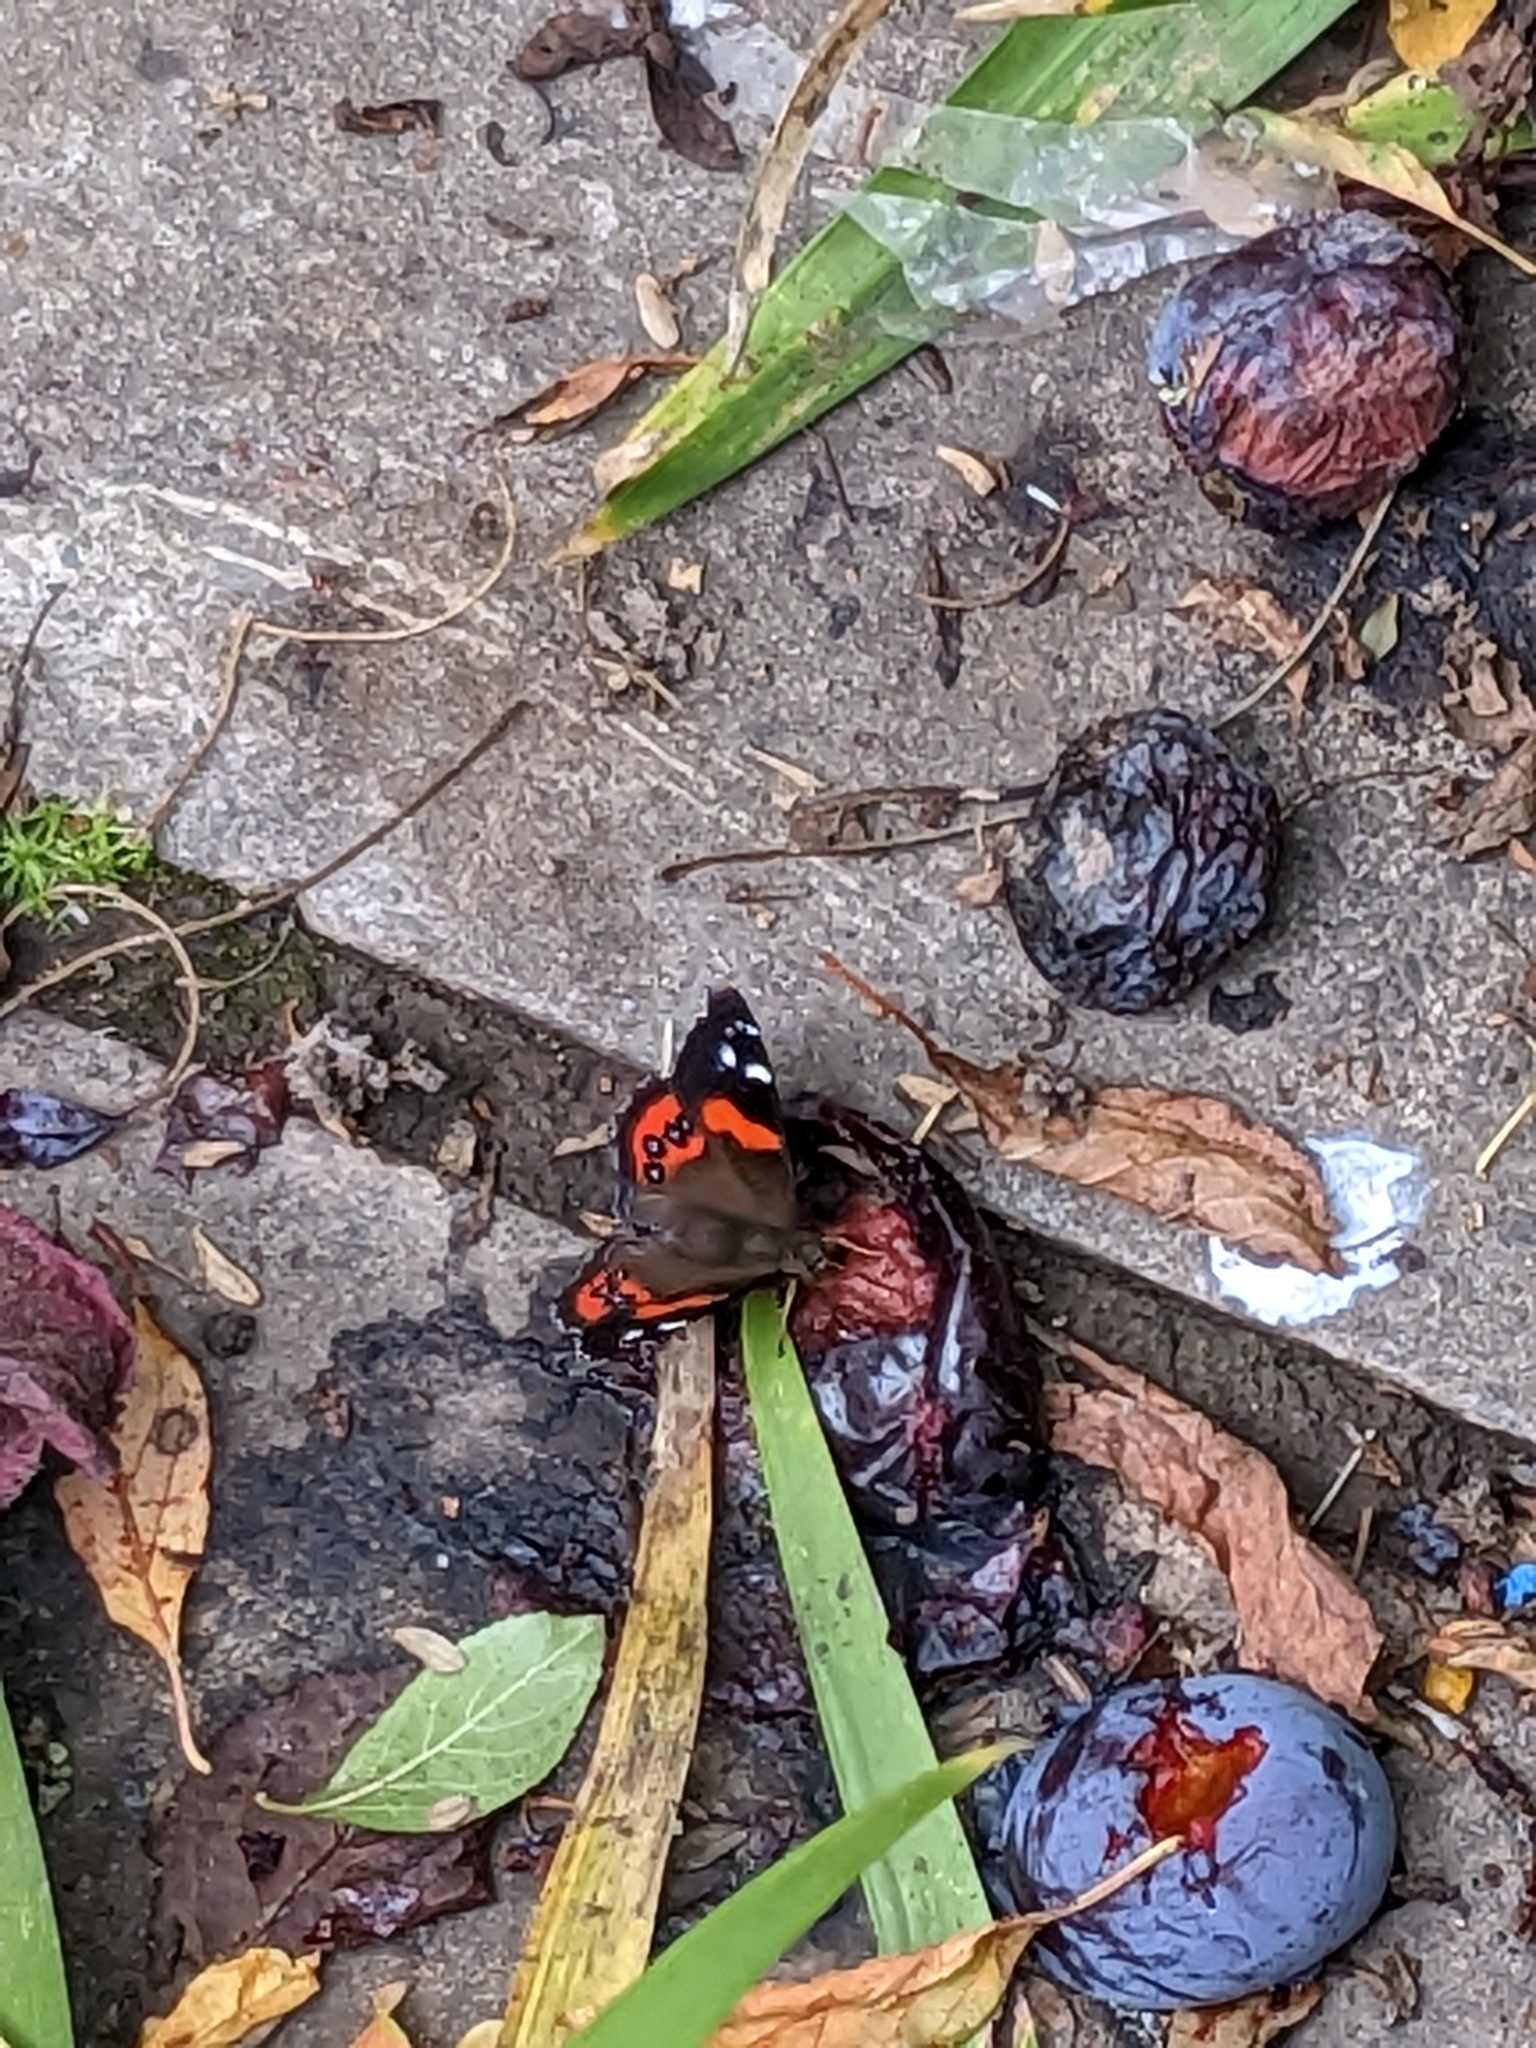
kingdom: Animalia
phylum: Arthropoda
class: Insecta
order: Lepidoptera
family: Nymphalidae
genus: Vanessa
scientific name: Vanessa gonerilla
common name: New zealand red admiral
